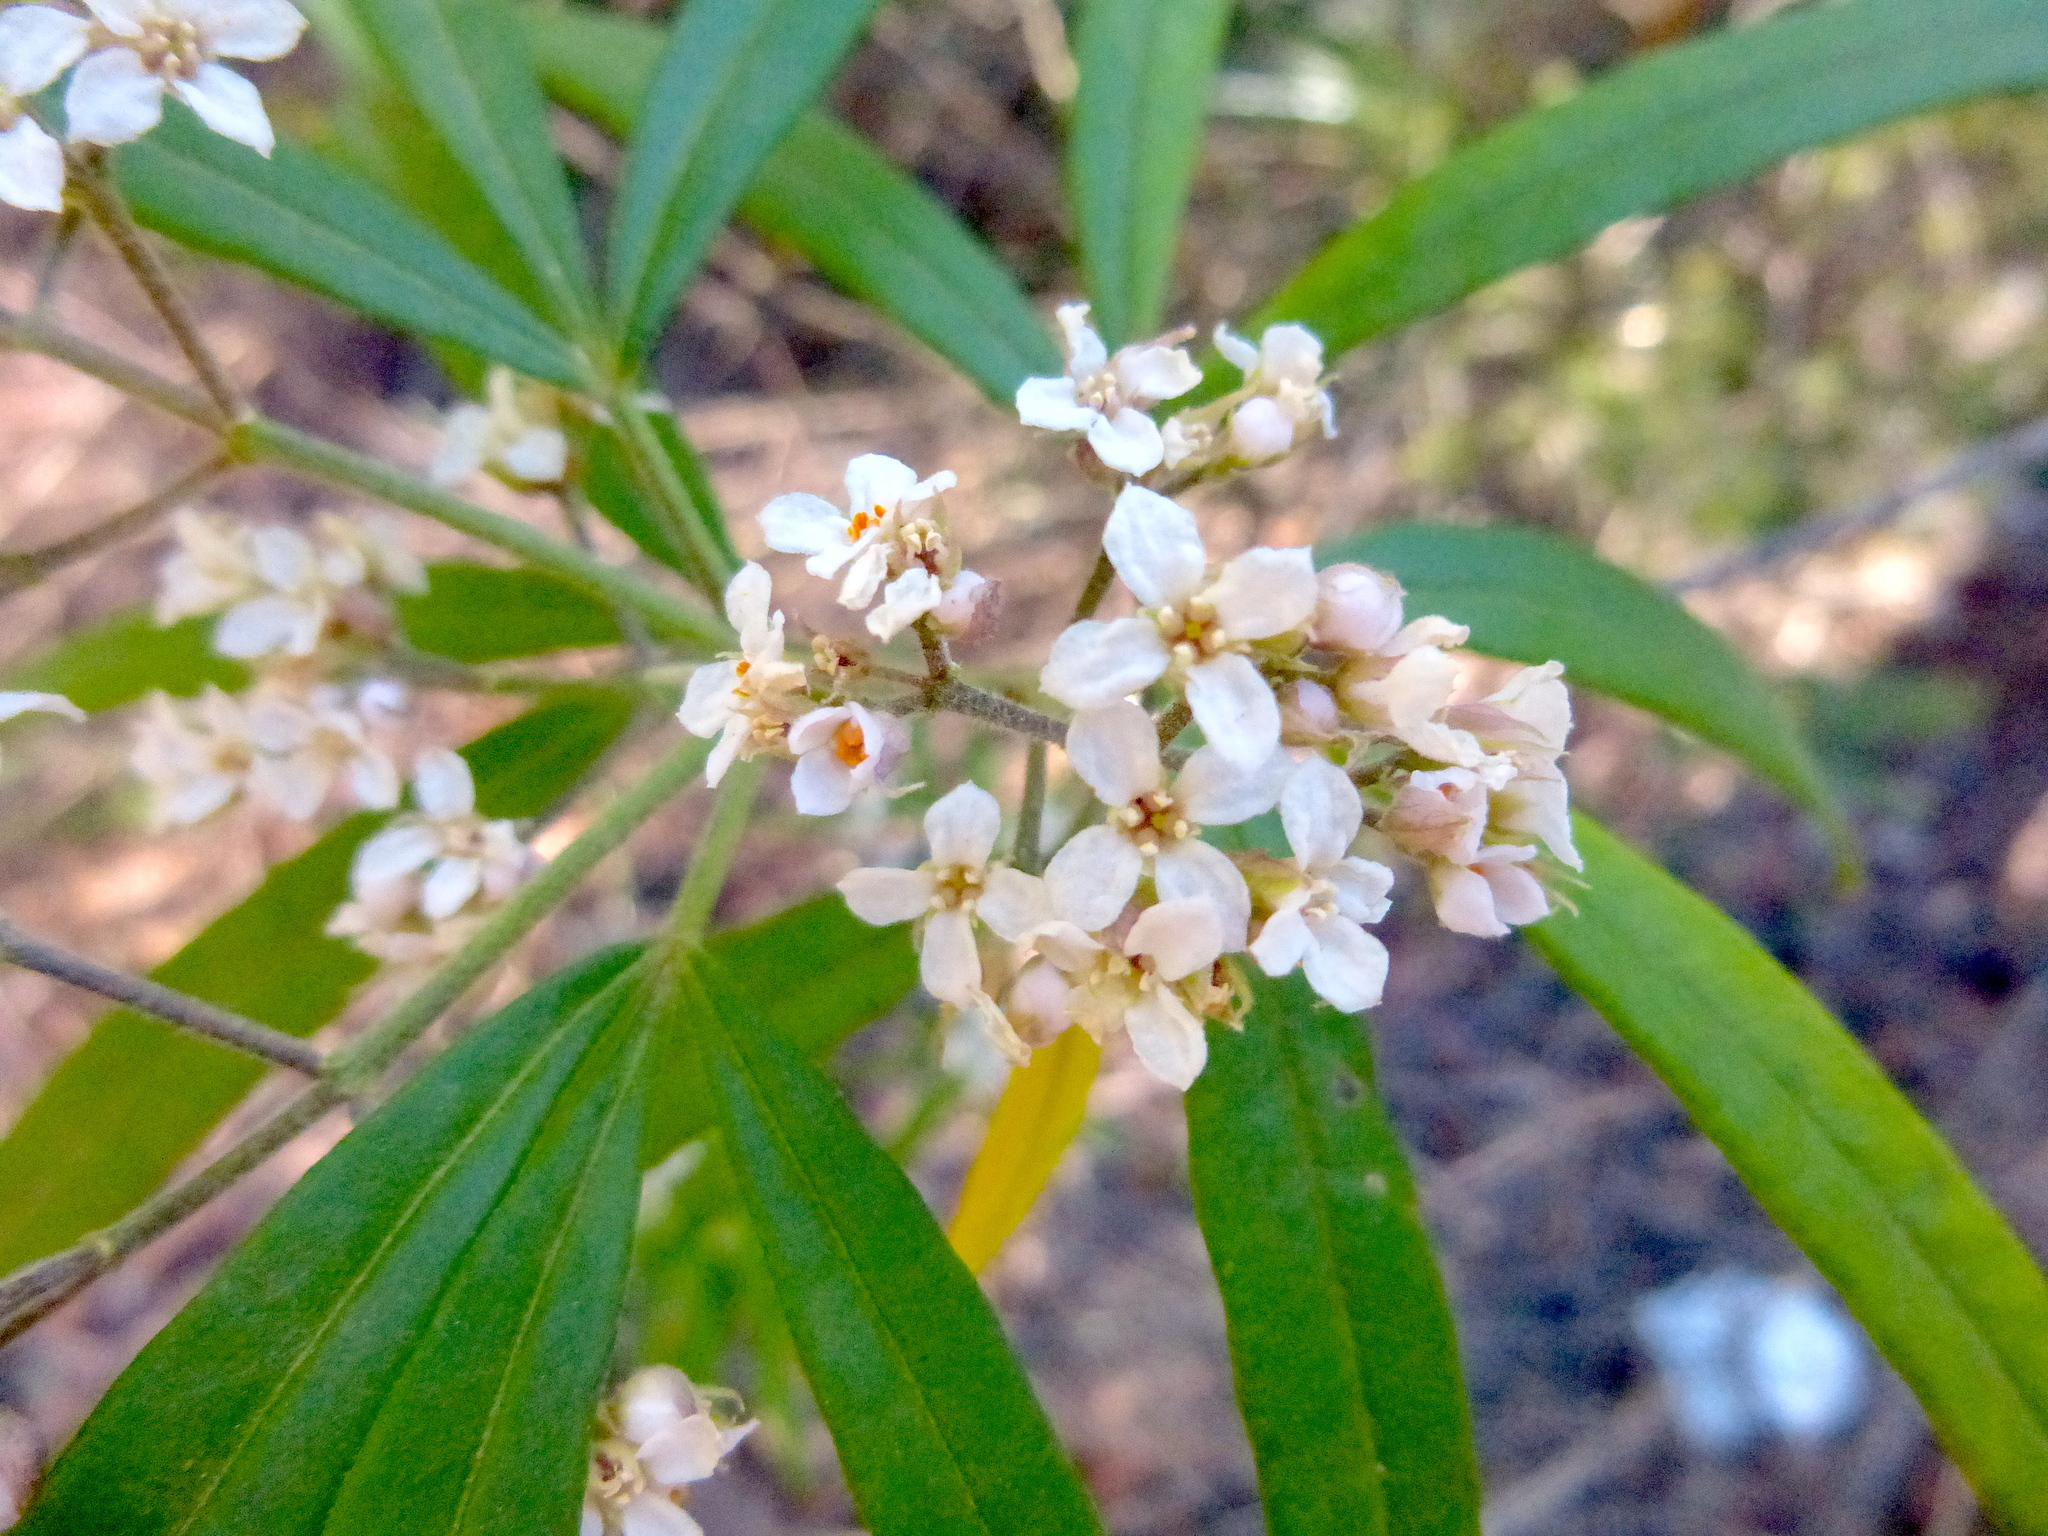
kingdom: Plantae
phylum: Tracheophyta
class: Magnoliopsida
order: Sapindales
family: Rutaceae
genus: Zieria
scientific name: Zieria caducibracteata
